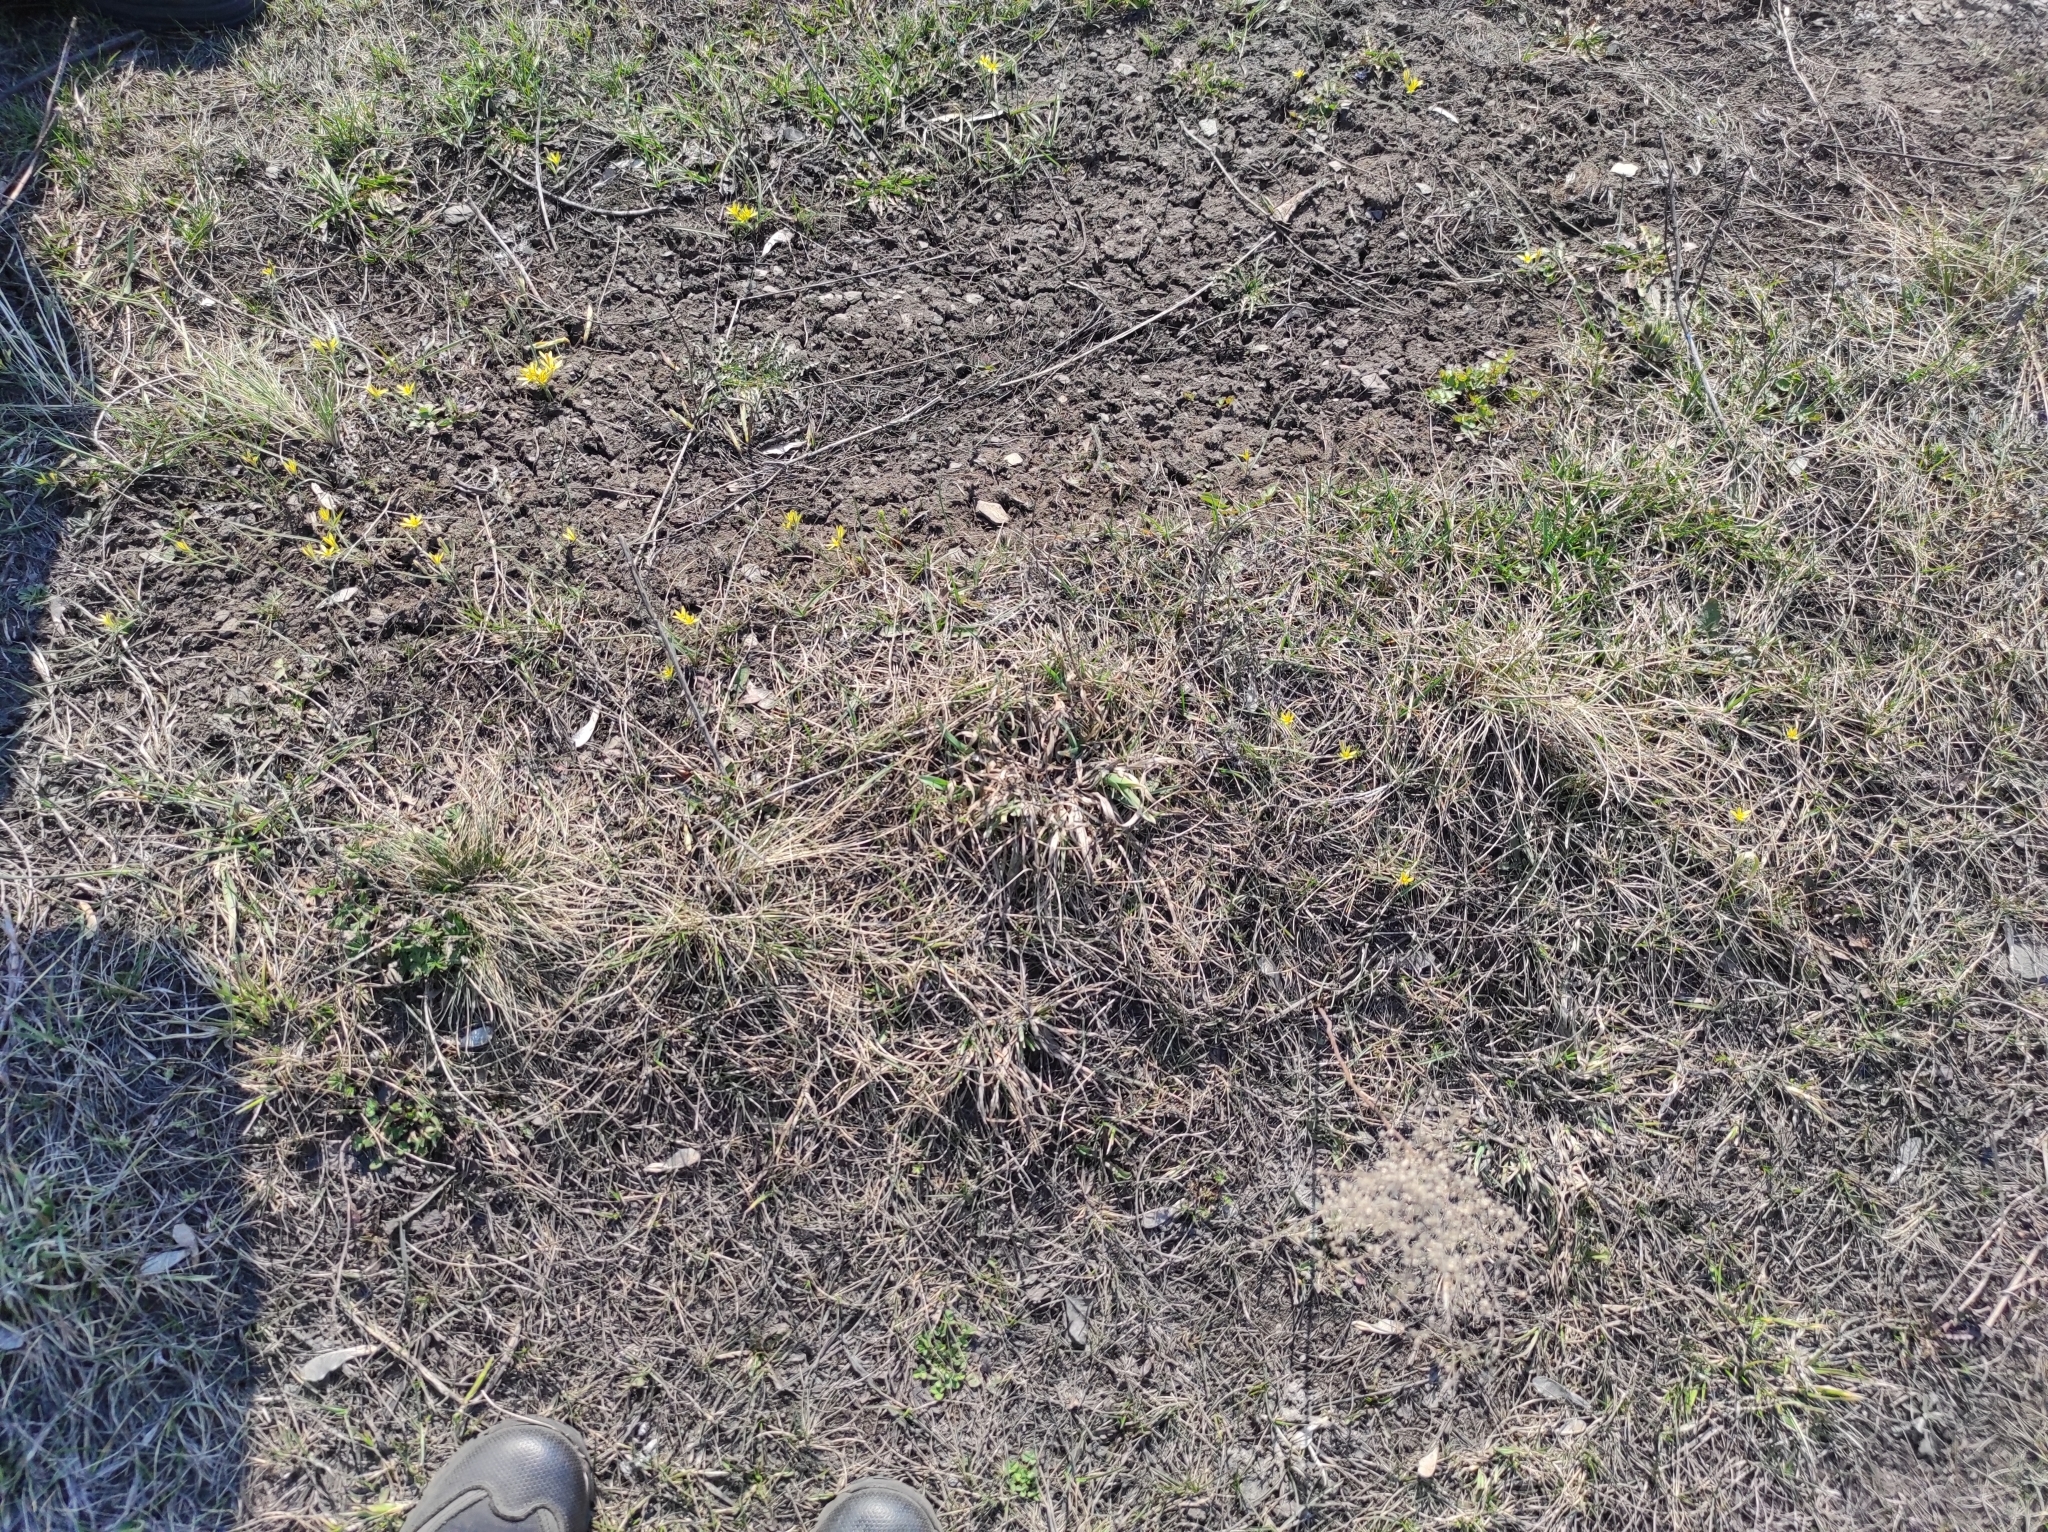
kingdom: Plantae
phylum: Tracheophyta
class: Liliopsida
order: Liliales
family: Liliaceae
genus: Gagea
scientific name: Gagea fedtschenkoana
